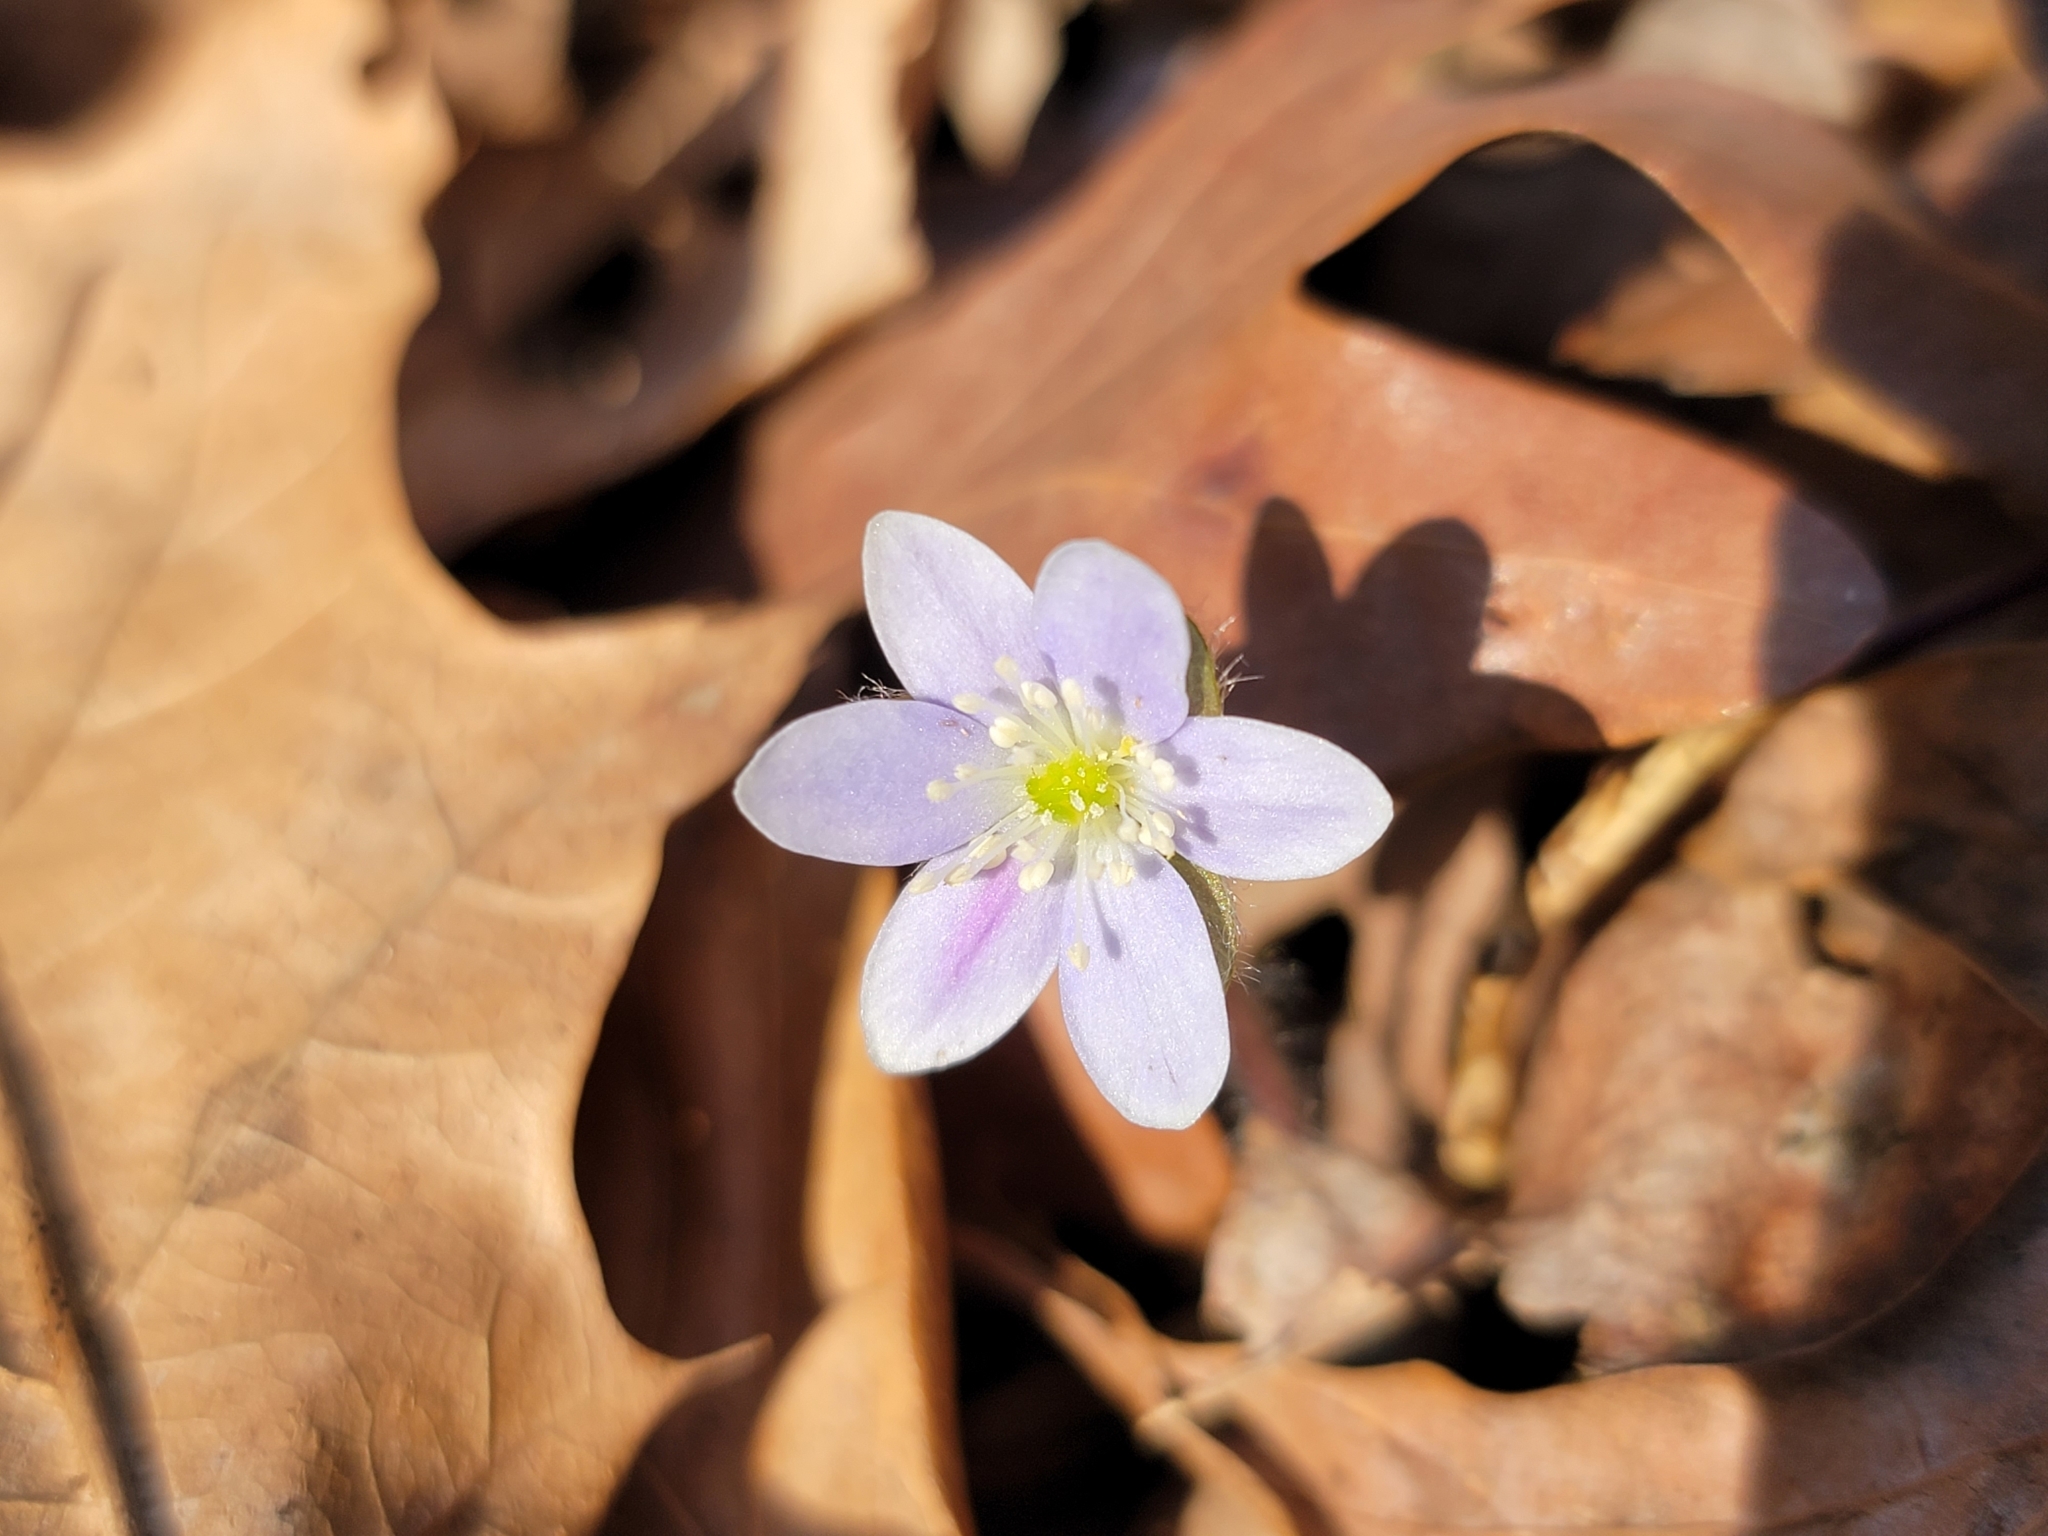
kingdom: Plantae
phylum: Tracheophyta
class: Magnoliopsida
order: Ranunculales
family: Ranunculaceae
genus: Hepatica
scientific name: Hepatica americana
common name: American hepatica
